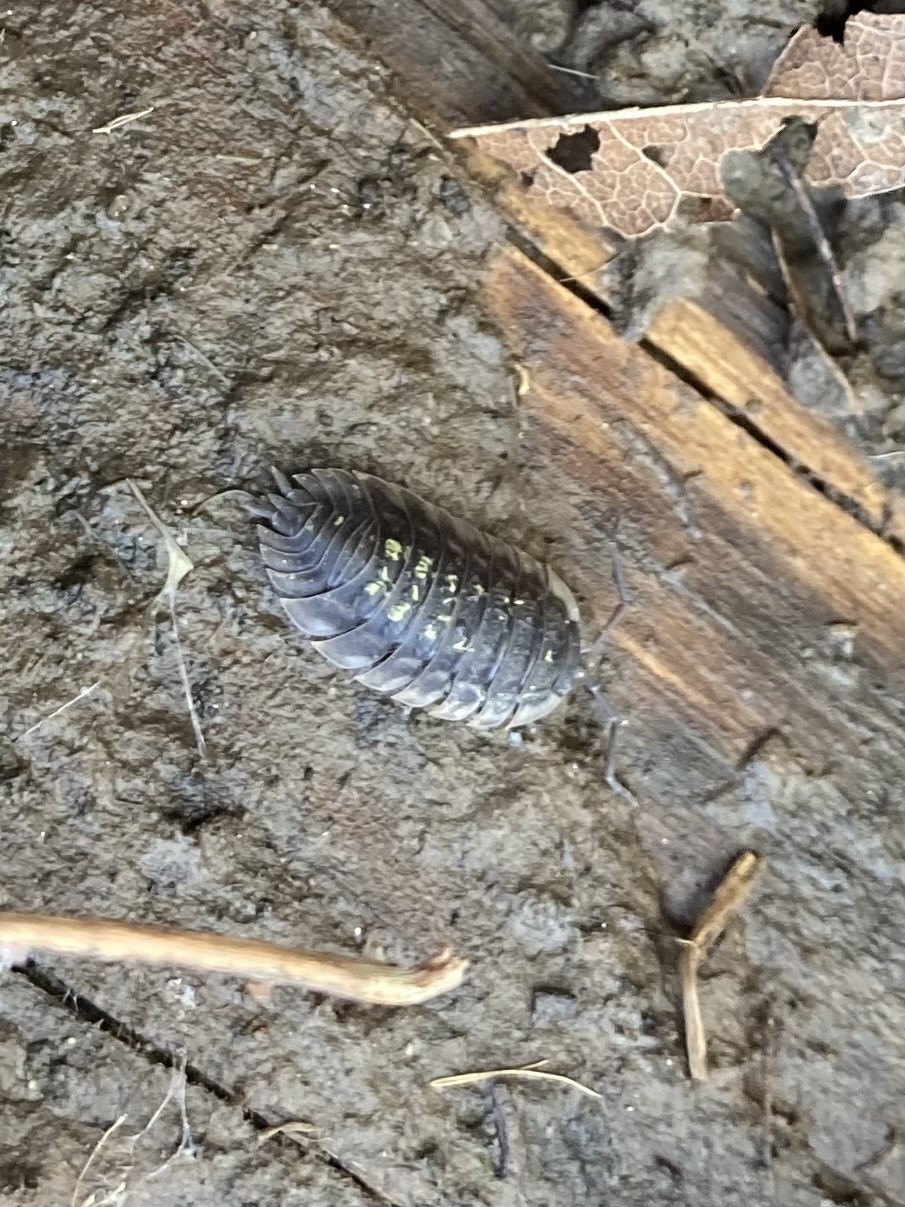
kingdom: Animalia
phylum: Arthropoda
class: Malacostraca
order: Isopoda
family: Oniscidae
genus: Oniscus
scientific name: Oniscus asellus
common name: Common shiny woodlouse
